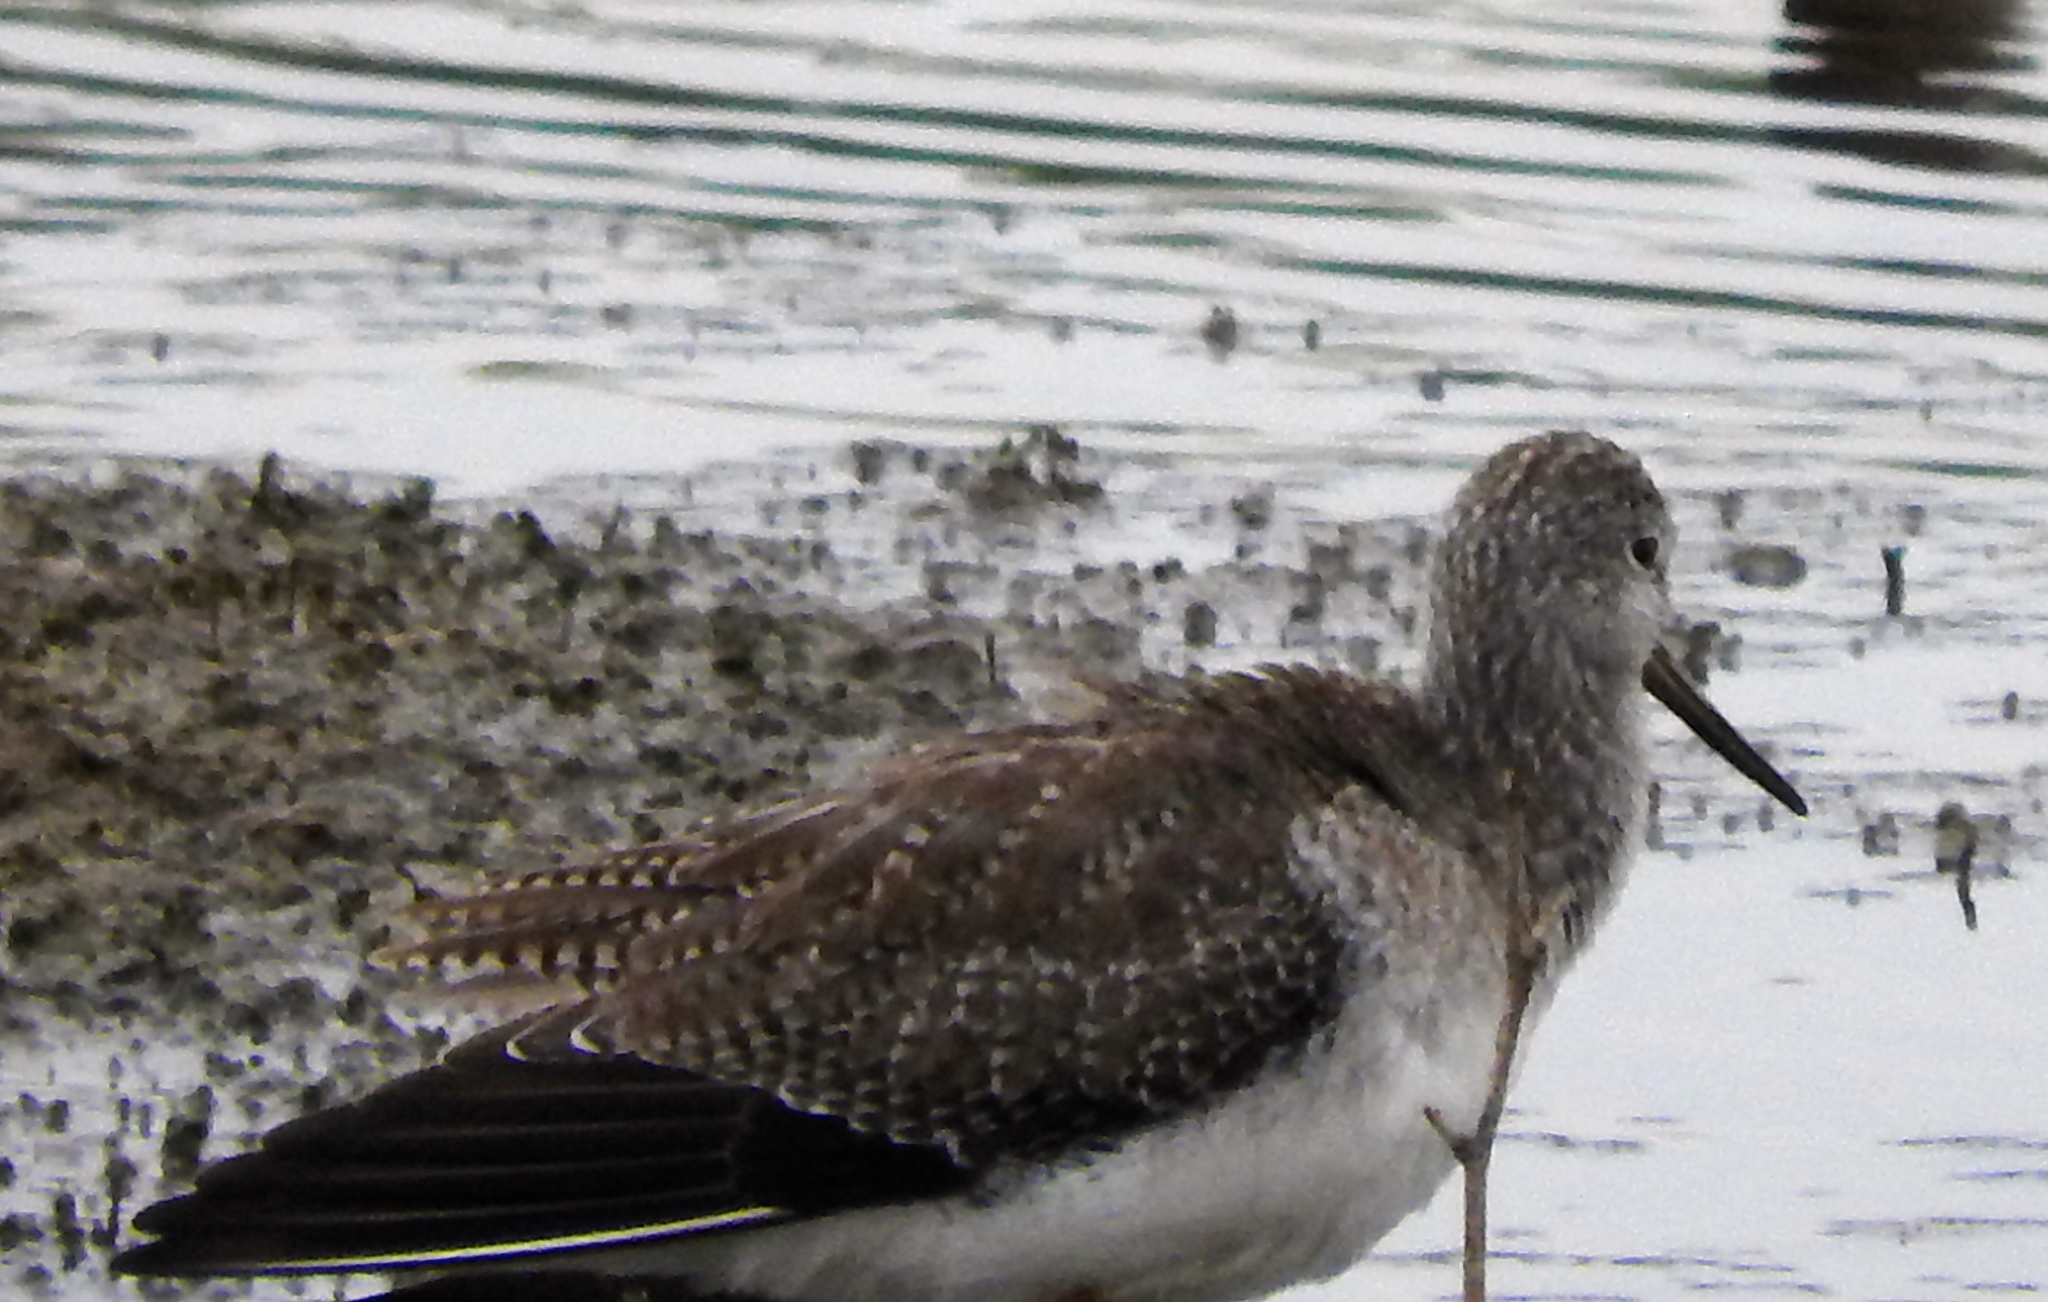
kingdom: Animalia
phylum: Chordata
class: Aves
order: Charadriiformes
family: Scolopacidae
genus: Tringa
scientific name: Tringa melanoleuca
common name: Greater yellowlegs
